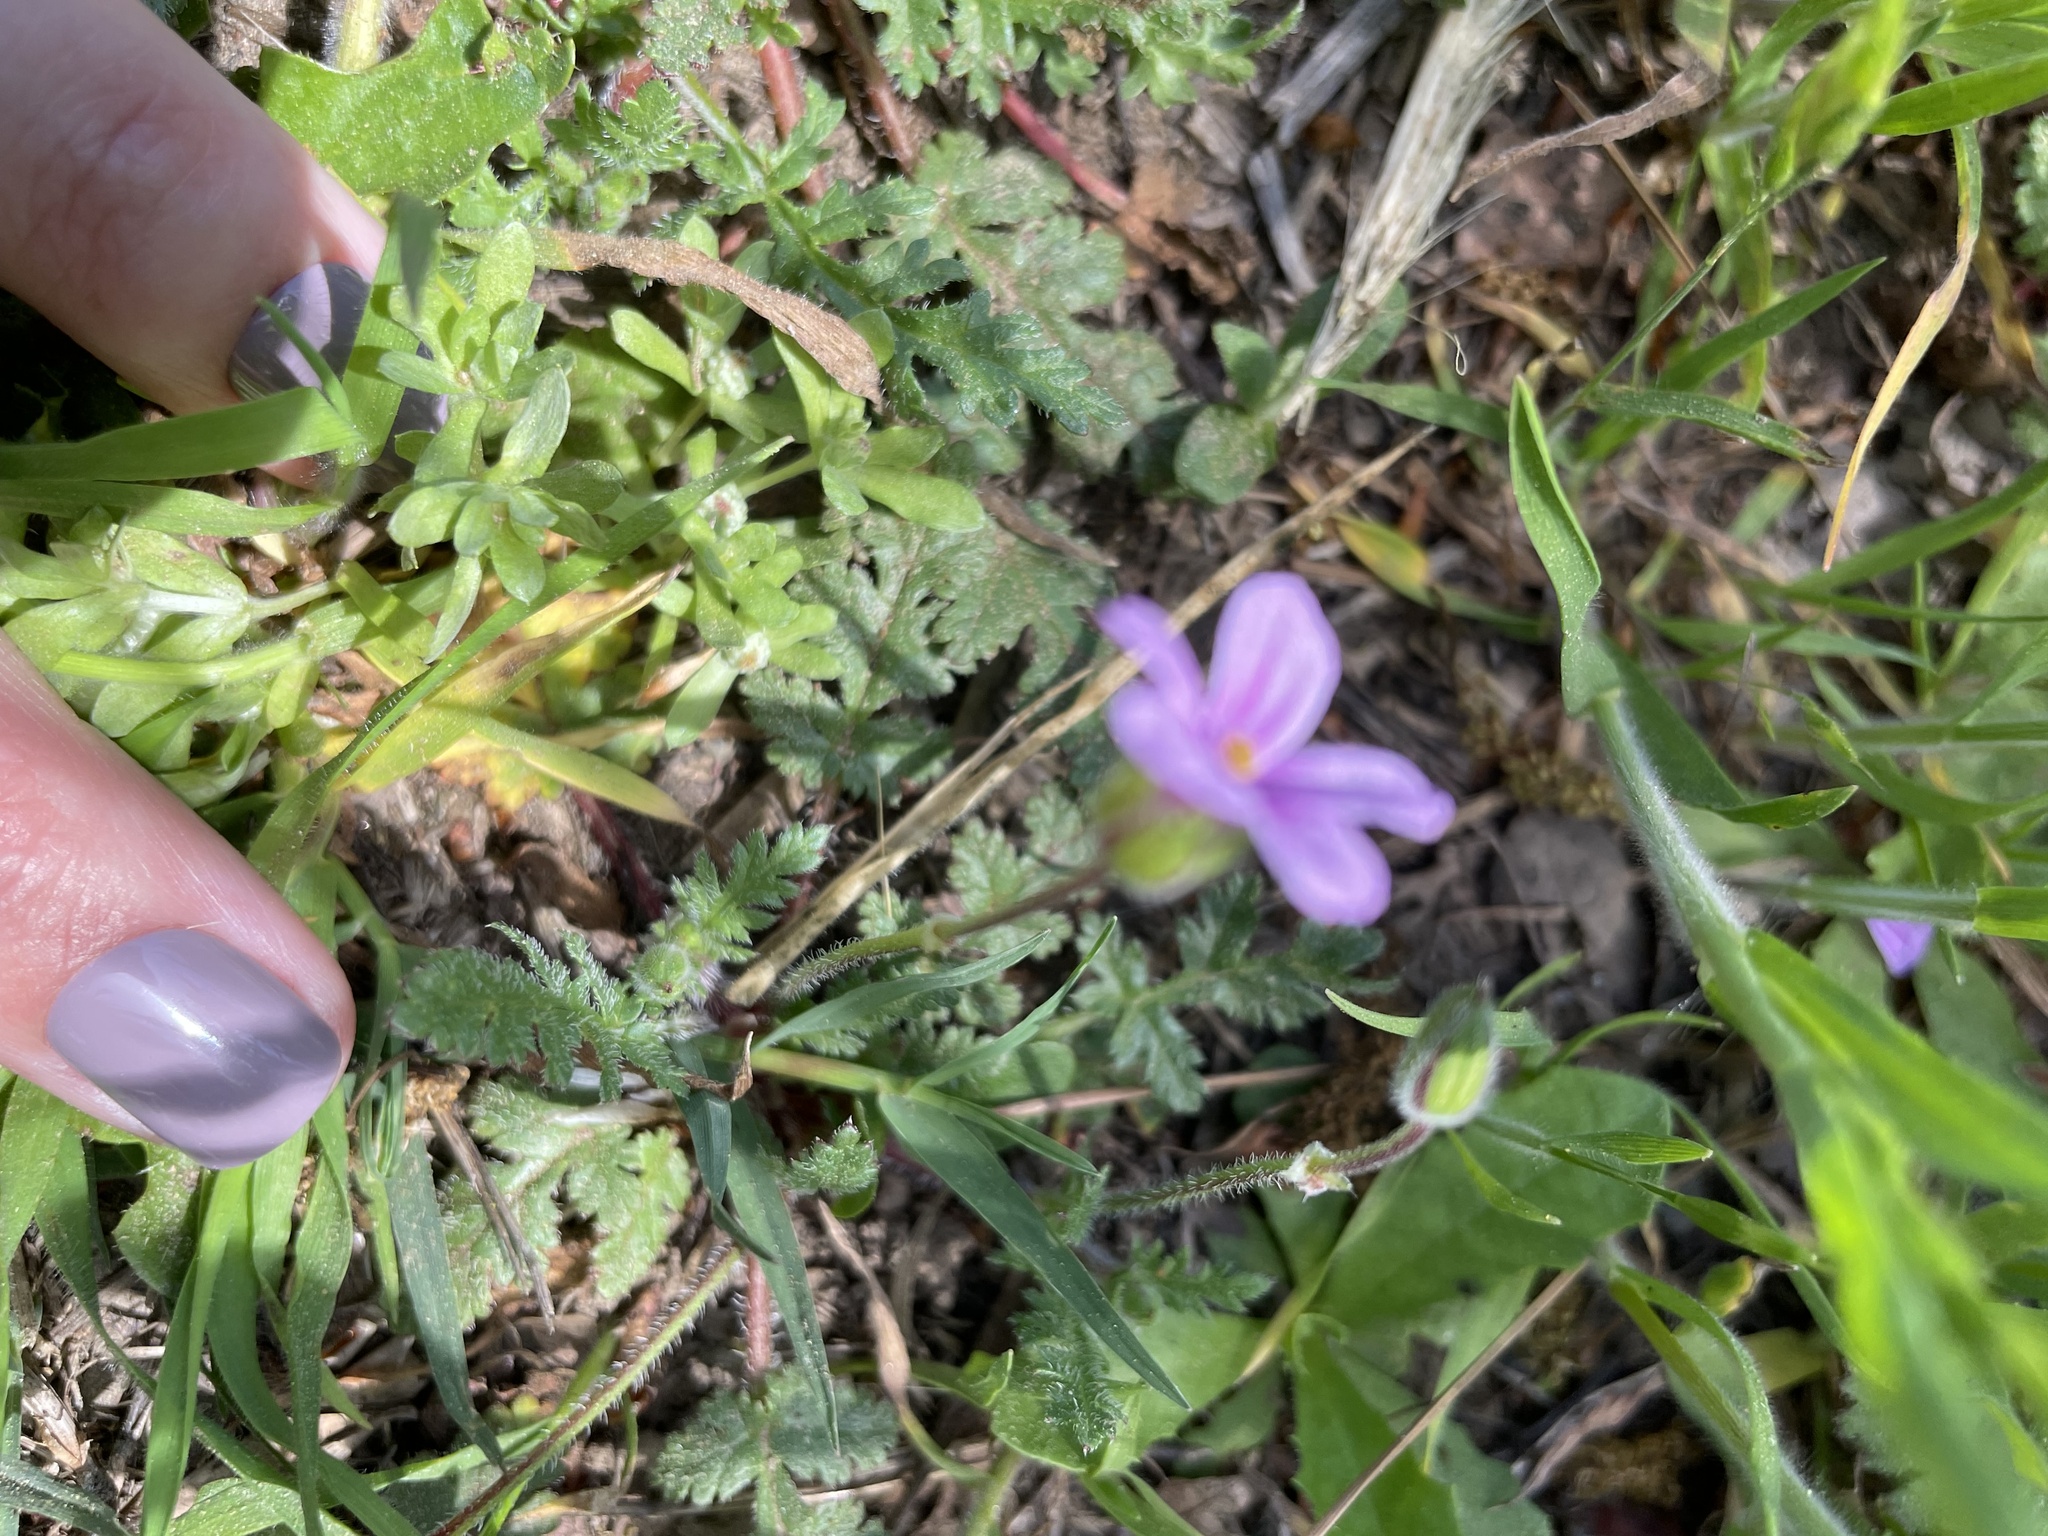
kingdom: Plantae
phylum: Tracheophyta
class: Magnoliopsida
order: Geraniales
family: Geraniaceae
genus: Erodium
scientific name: Erodium botrys
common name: Mediterranean stork's-bill
